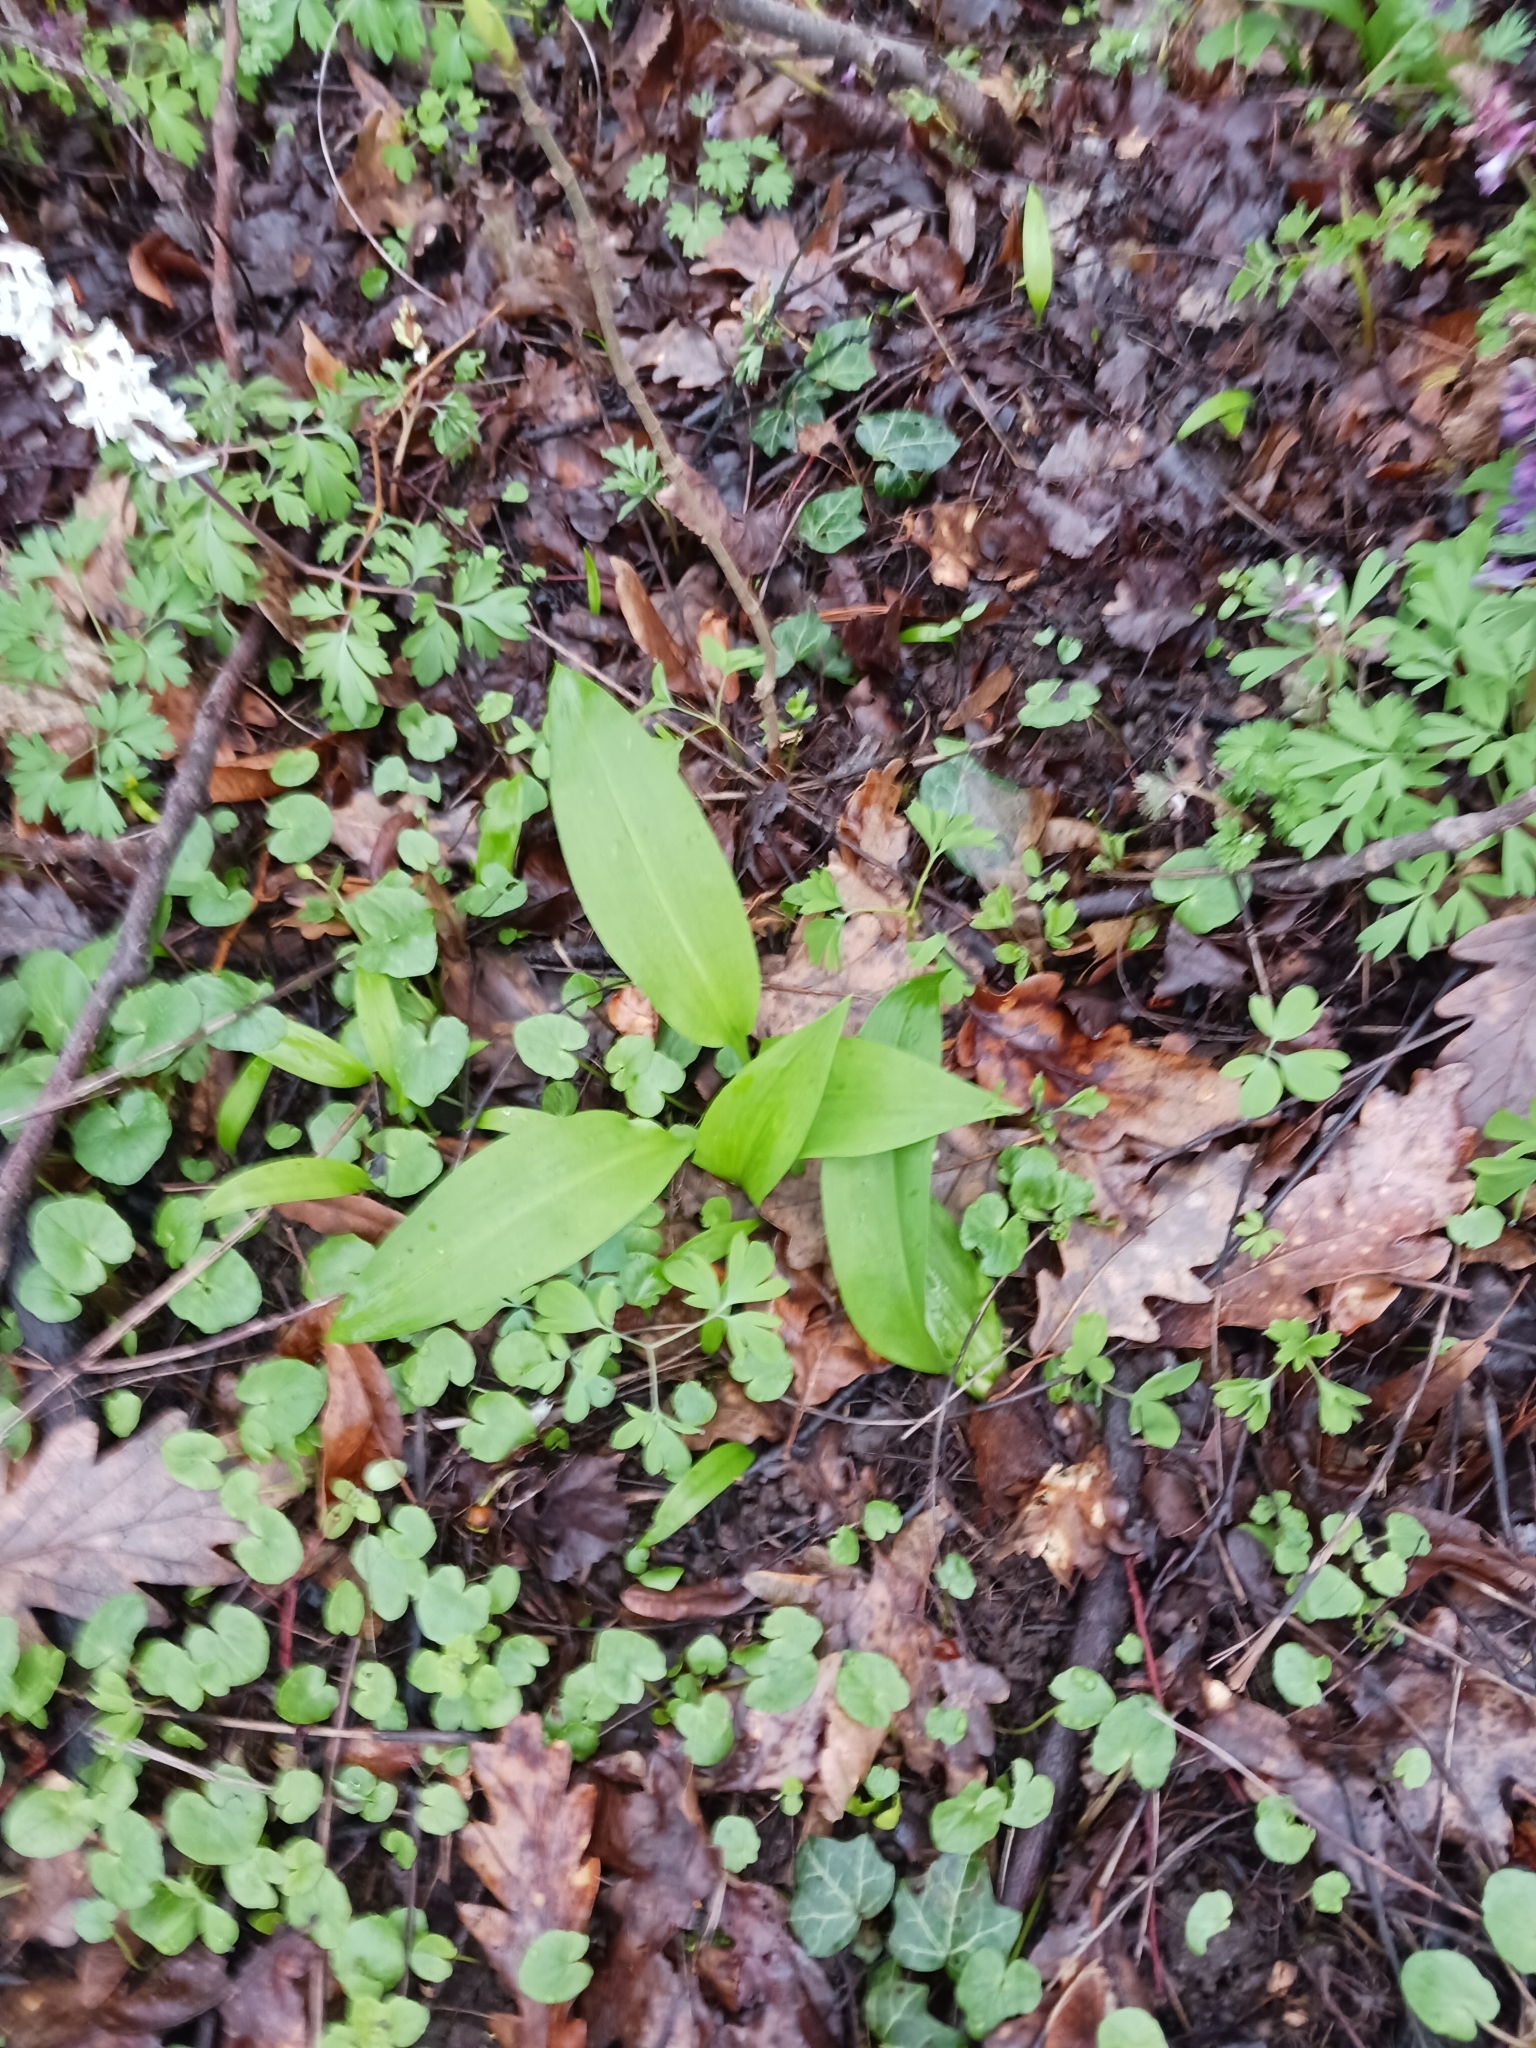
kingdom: Plantae
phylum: Tracheophyta
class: Liliopsida
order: Asparagales
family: Amaryllidaceae
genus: Allium
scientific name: Allium ursinum
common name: Ramsons
